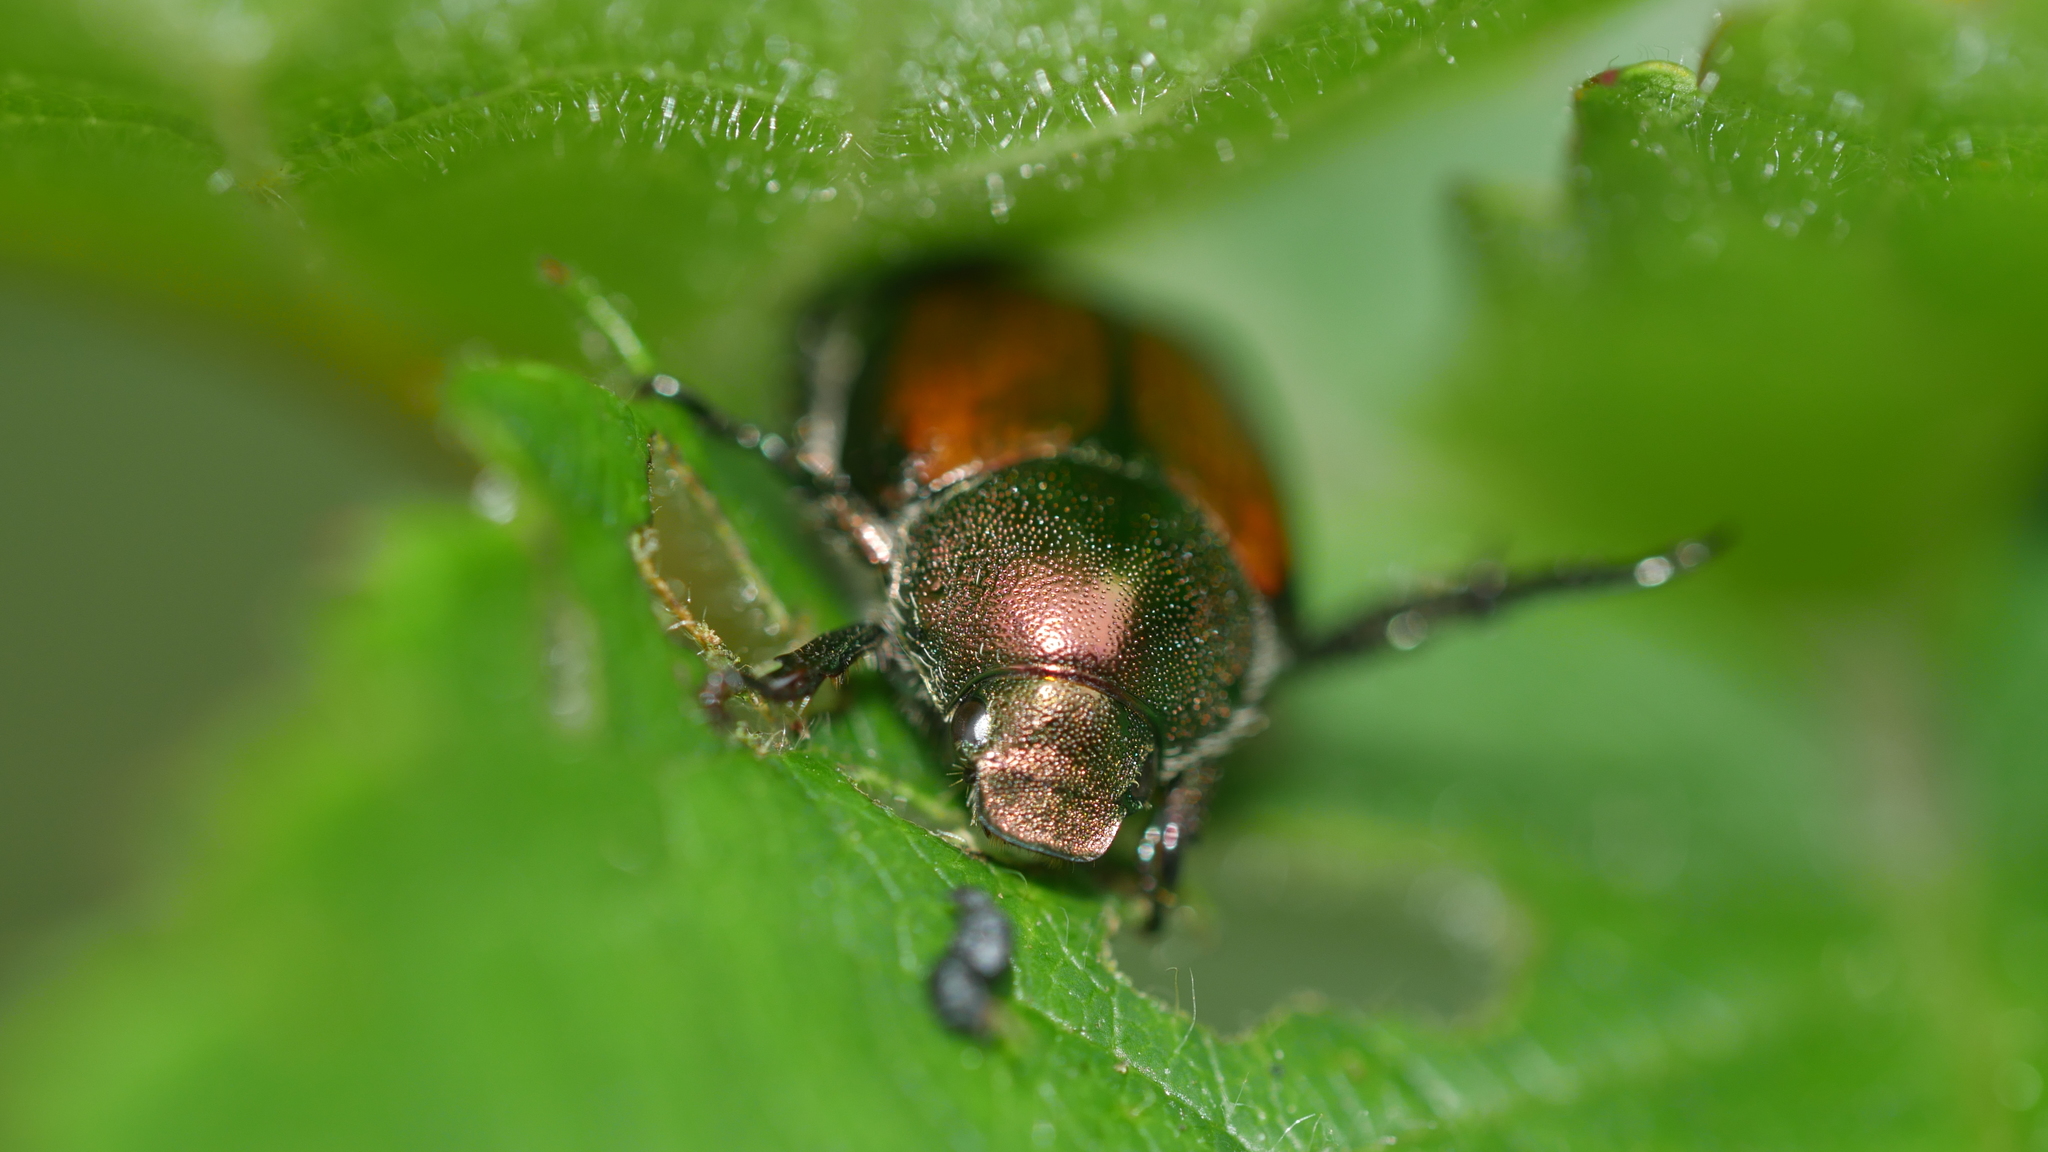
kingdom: Animalia
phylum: Arthropoda
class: Insecta
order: Coleoptera
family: Scarabaeidae
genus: Popillia
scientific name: Popillia japonica
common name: Japanese beetle
